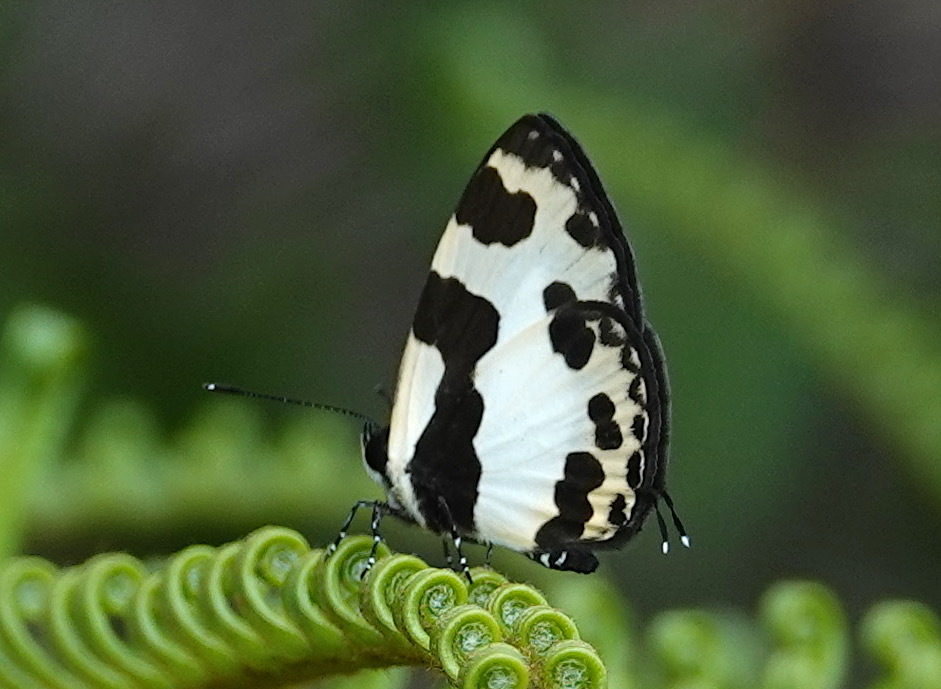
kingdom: Animalia
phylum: Arthropoda
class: Insecta
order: Lepidoptera
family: Lycaenidae
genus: Caleta
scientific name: Caleta elna
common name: Elbowed pierrot
